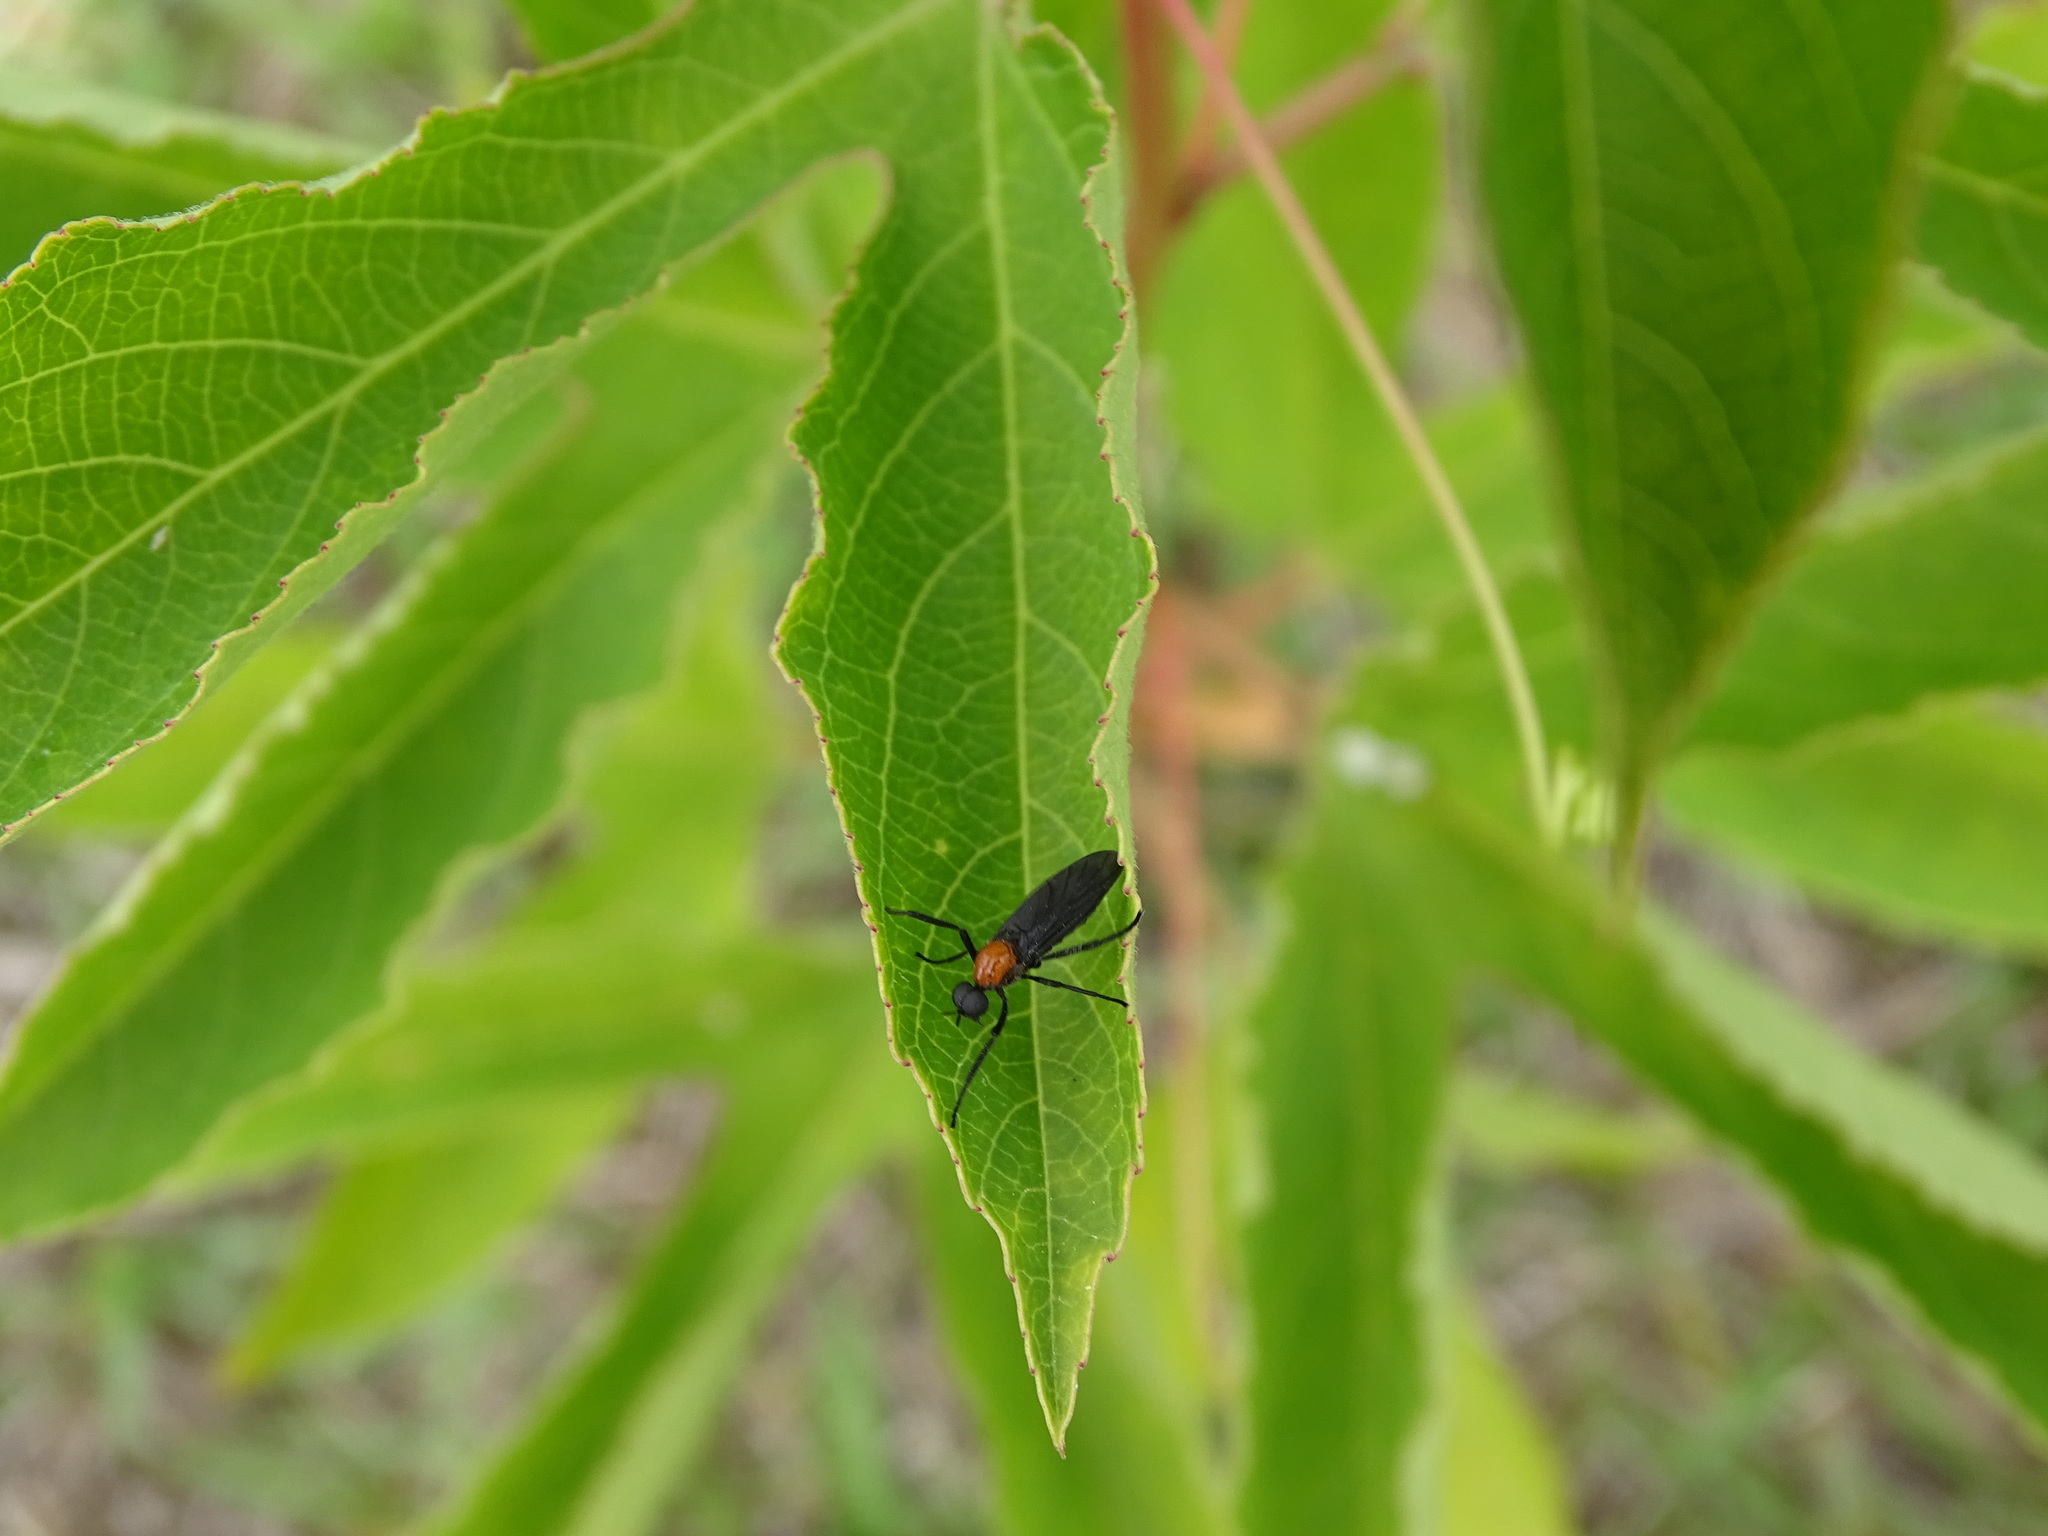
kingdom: Animalia
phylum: Arthropoda
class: Insecta
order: Diptera
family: Bibionidae
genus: Plecia
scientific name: Plecia nearctica
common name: March fly
